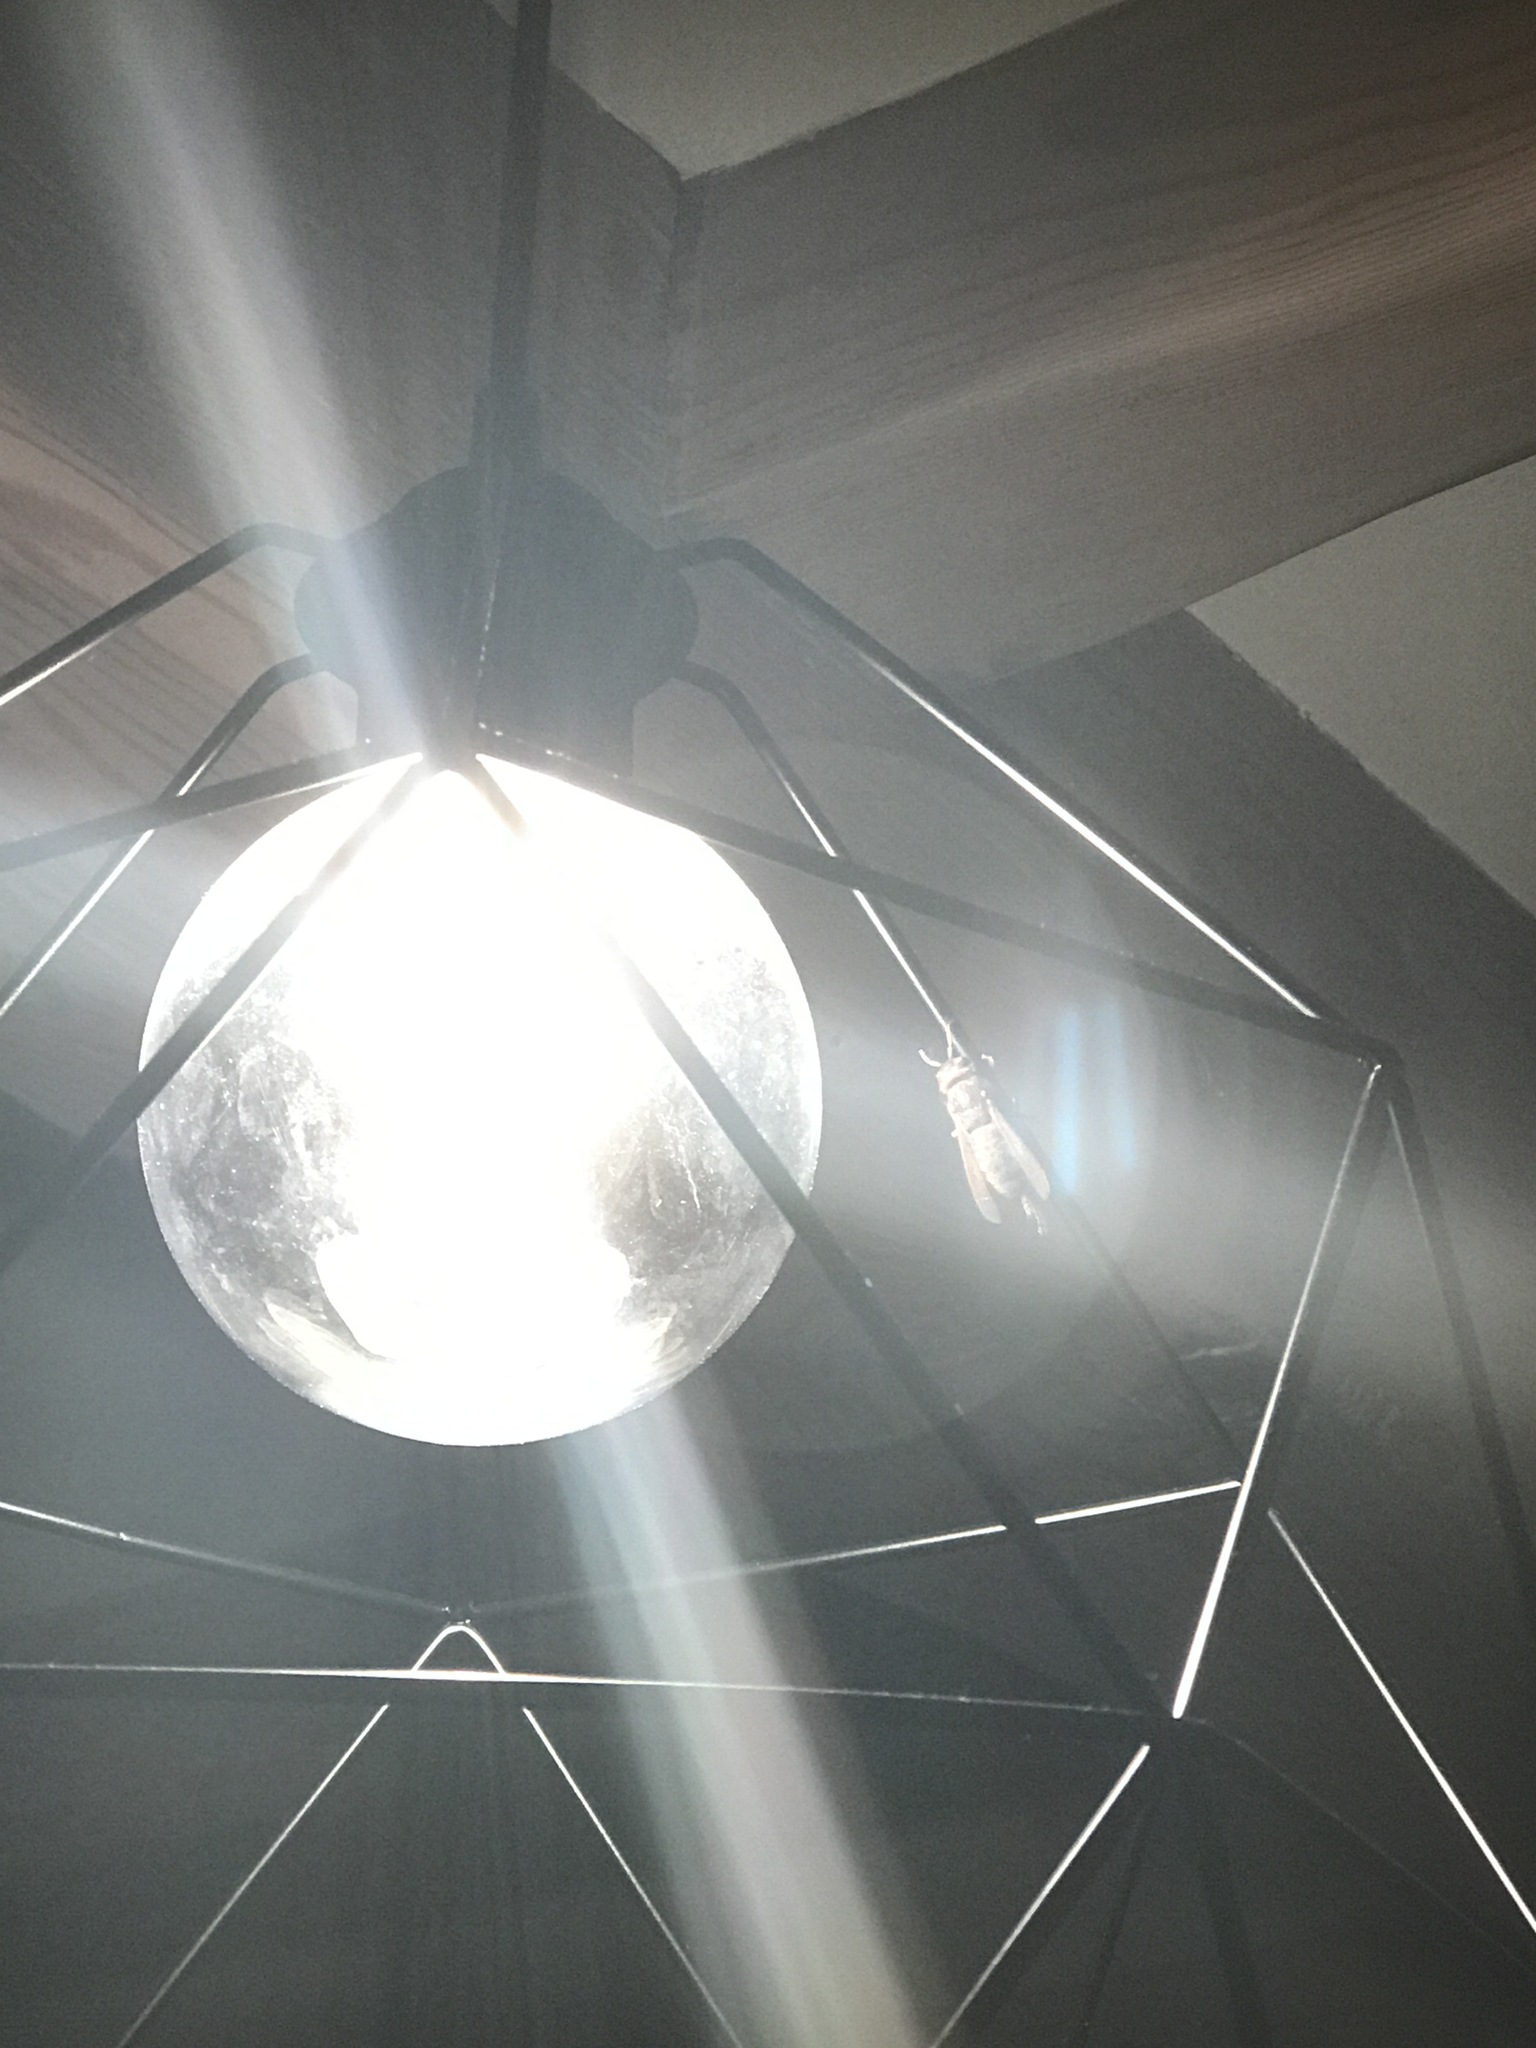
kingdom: Animalia
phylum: Arthropoda
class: Insecta
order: Hymenoptera
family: Vespidae
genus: Vespa
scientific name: Vespa crabro
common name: Hornet
